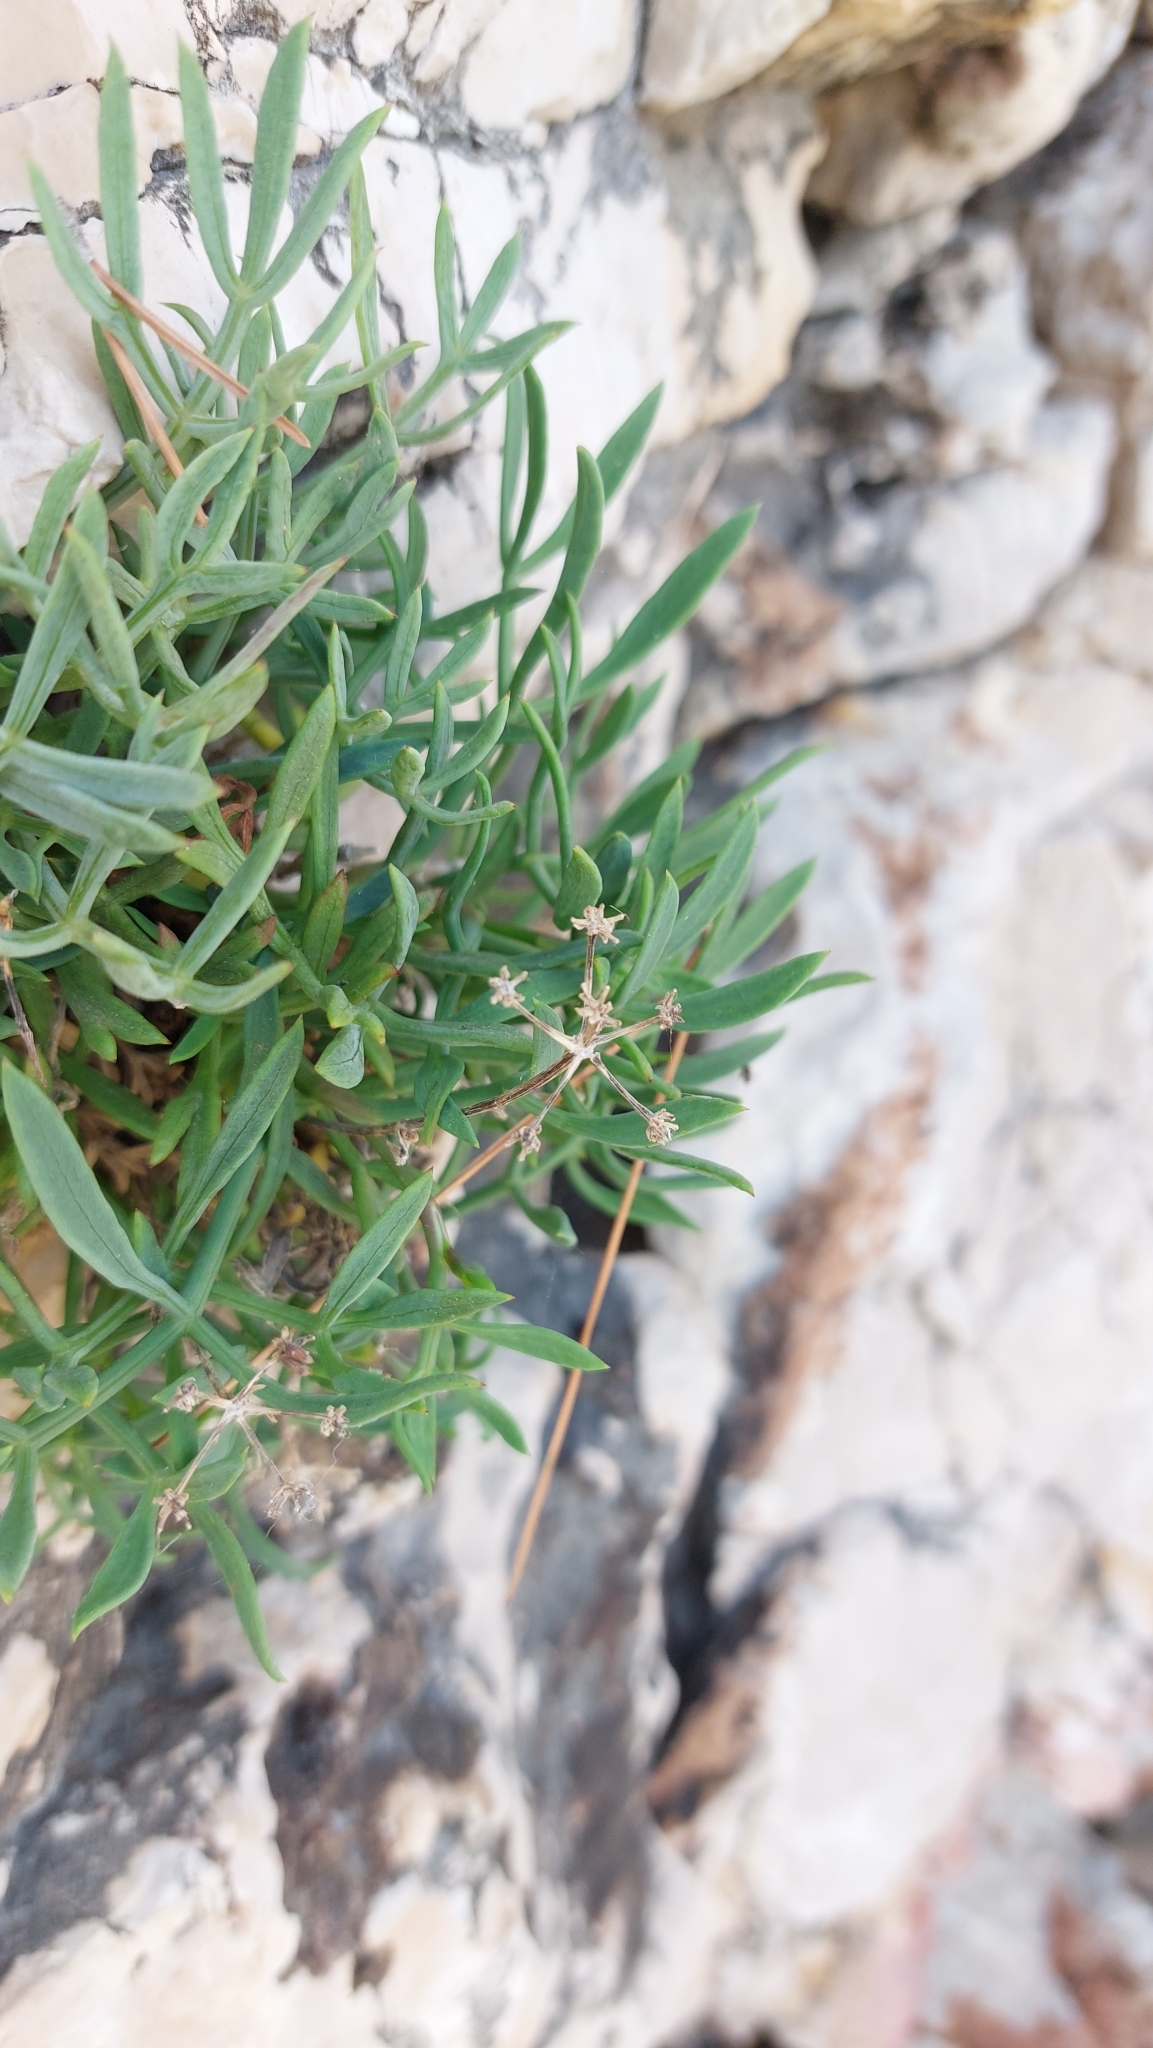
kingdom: Plantae
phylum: Tracheophyta
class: Magnoliopsida
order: Apiales
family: Apiaceae
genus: Crithmum
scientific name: Crithmum maritimum
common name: Rock samphire
